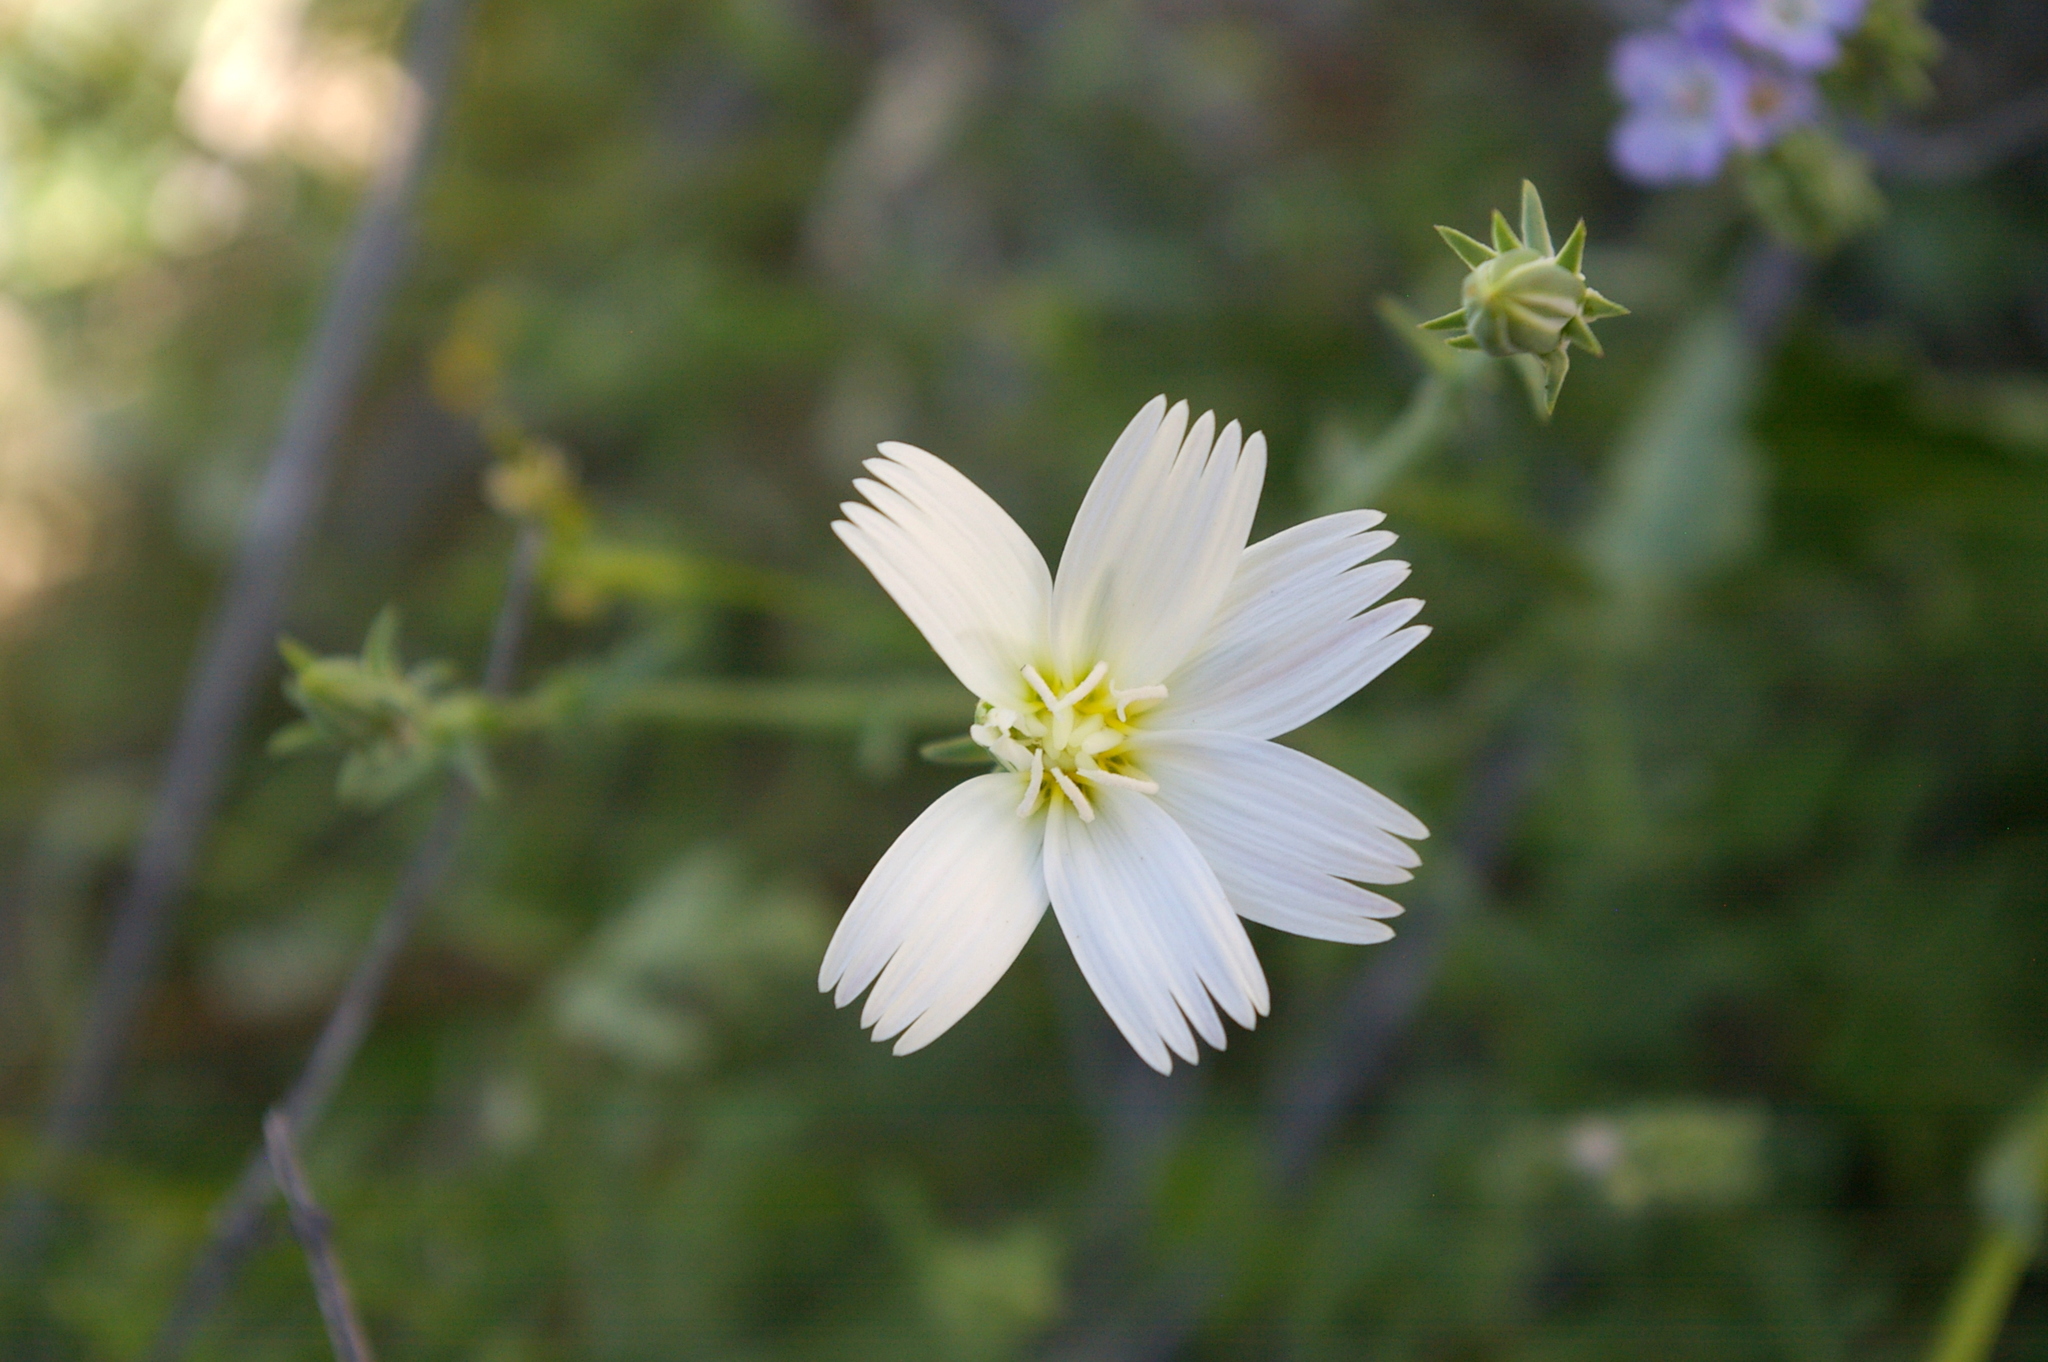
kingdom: Plantae
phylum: Tracheophyta
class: Magnoliopsida
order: Asterales
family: Asteraceae
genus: Rafinesquia
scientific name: Rafinesquia neomexicana
